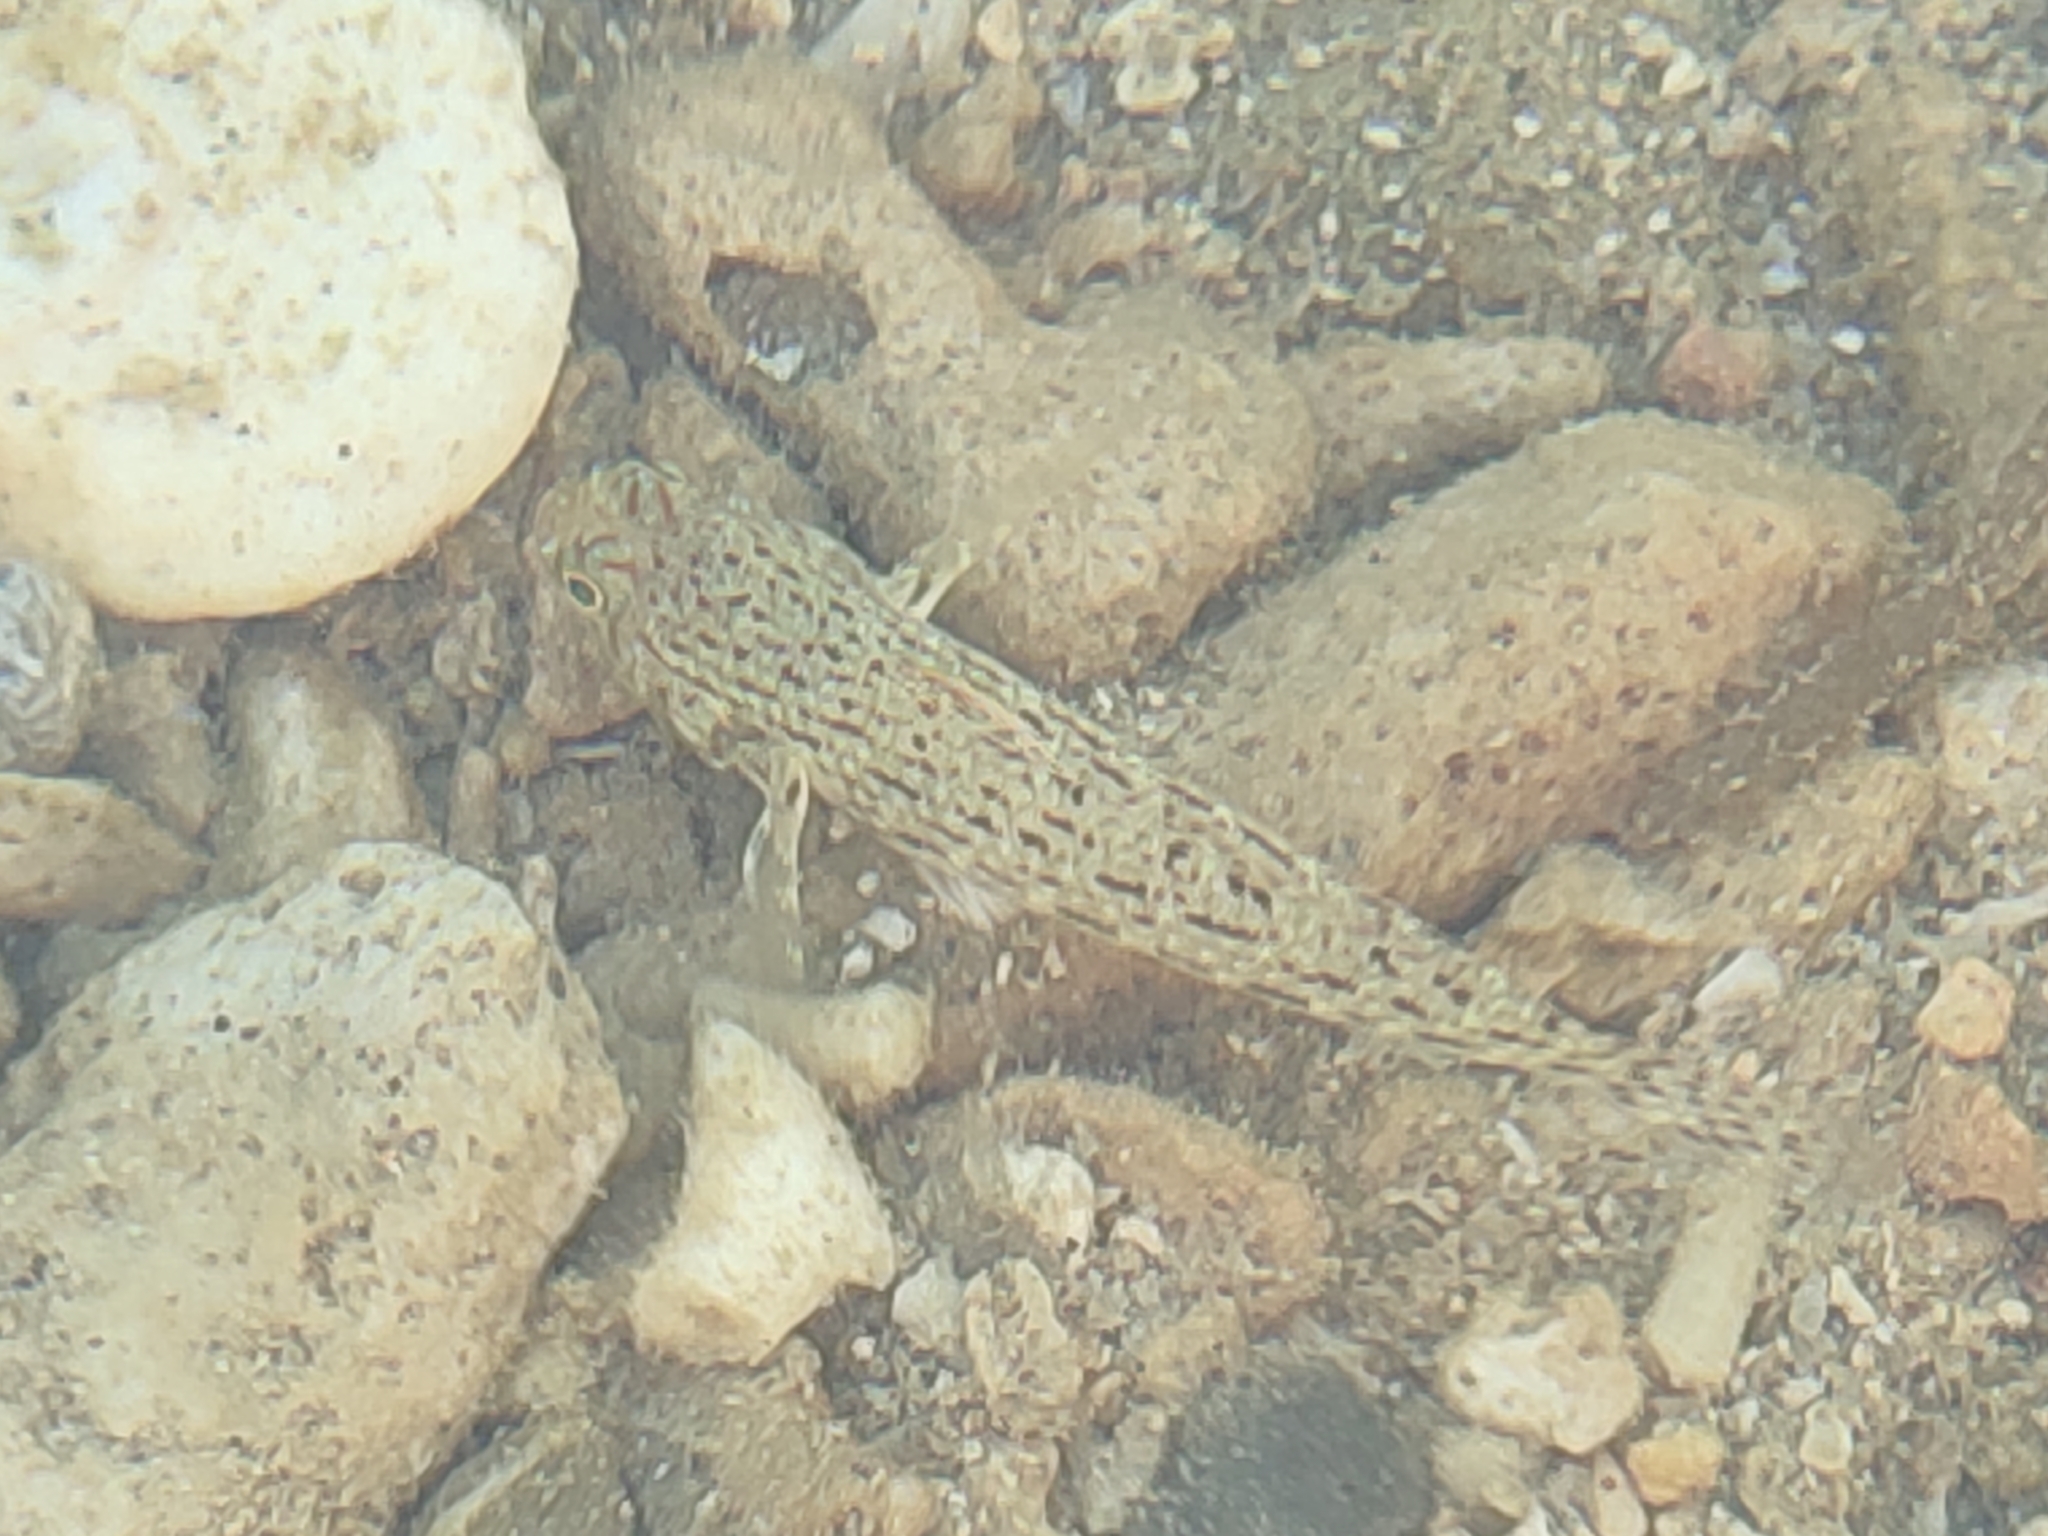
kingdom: Animalia
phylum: Chordata
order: Perciformes
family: Gobiidae
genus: Istigobius
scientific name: Istigobius ornatus
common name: Ornate goby
